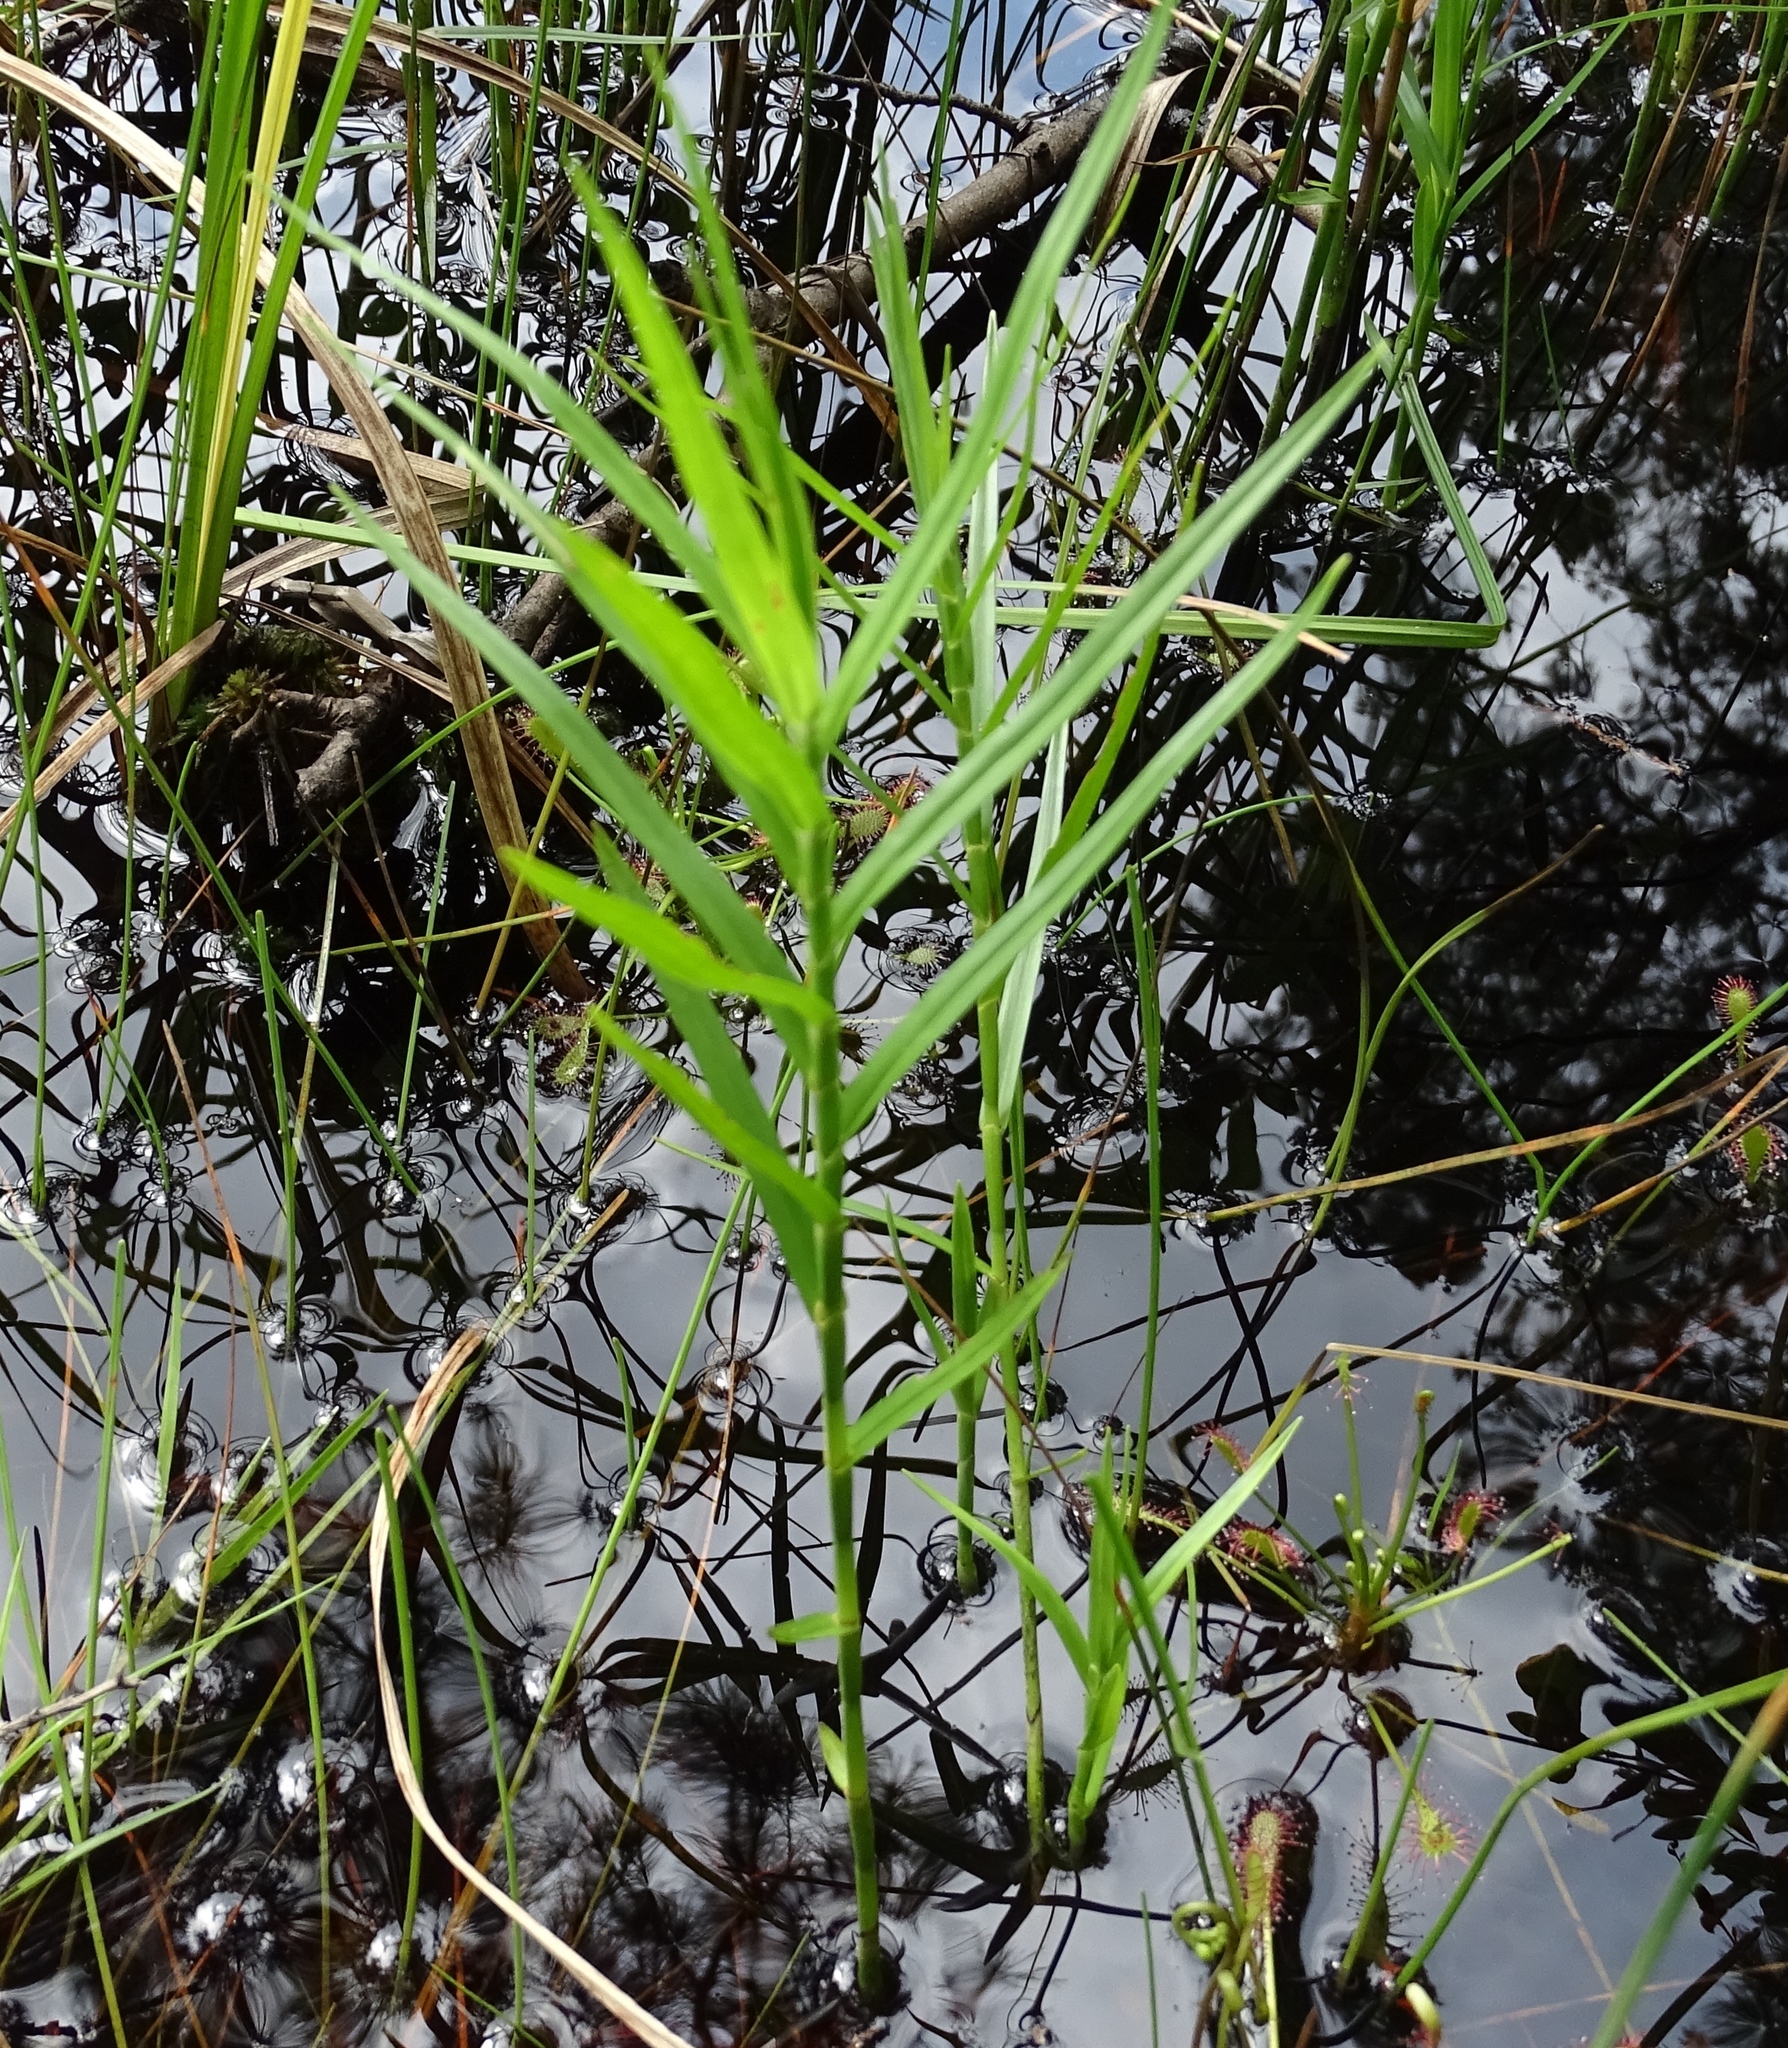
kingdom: Plantae
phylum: Tracheophyta
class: Liliopsida
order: Poales
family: Cyperaceae
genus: Dulichium
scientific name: Dulichium arundinaceum
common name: Three-way sedge
